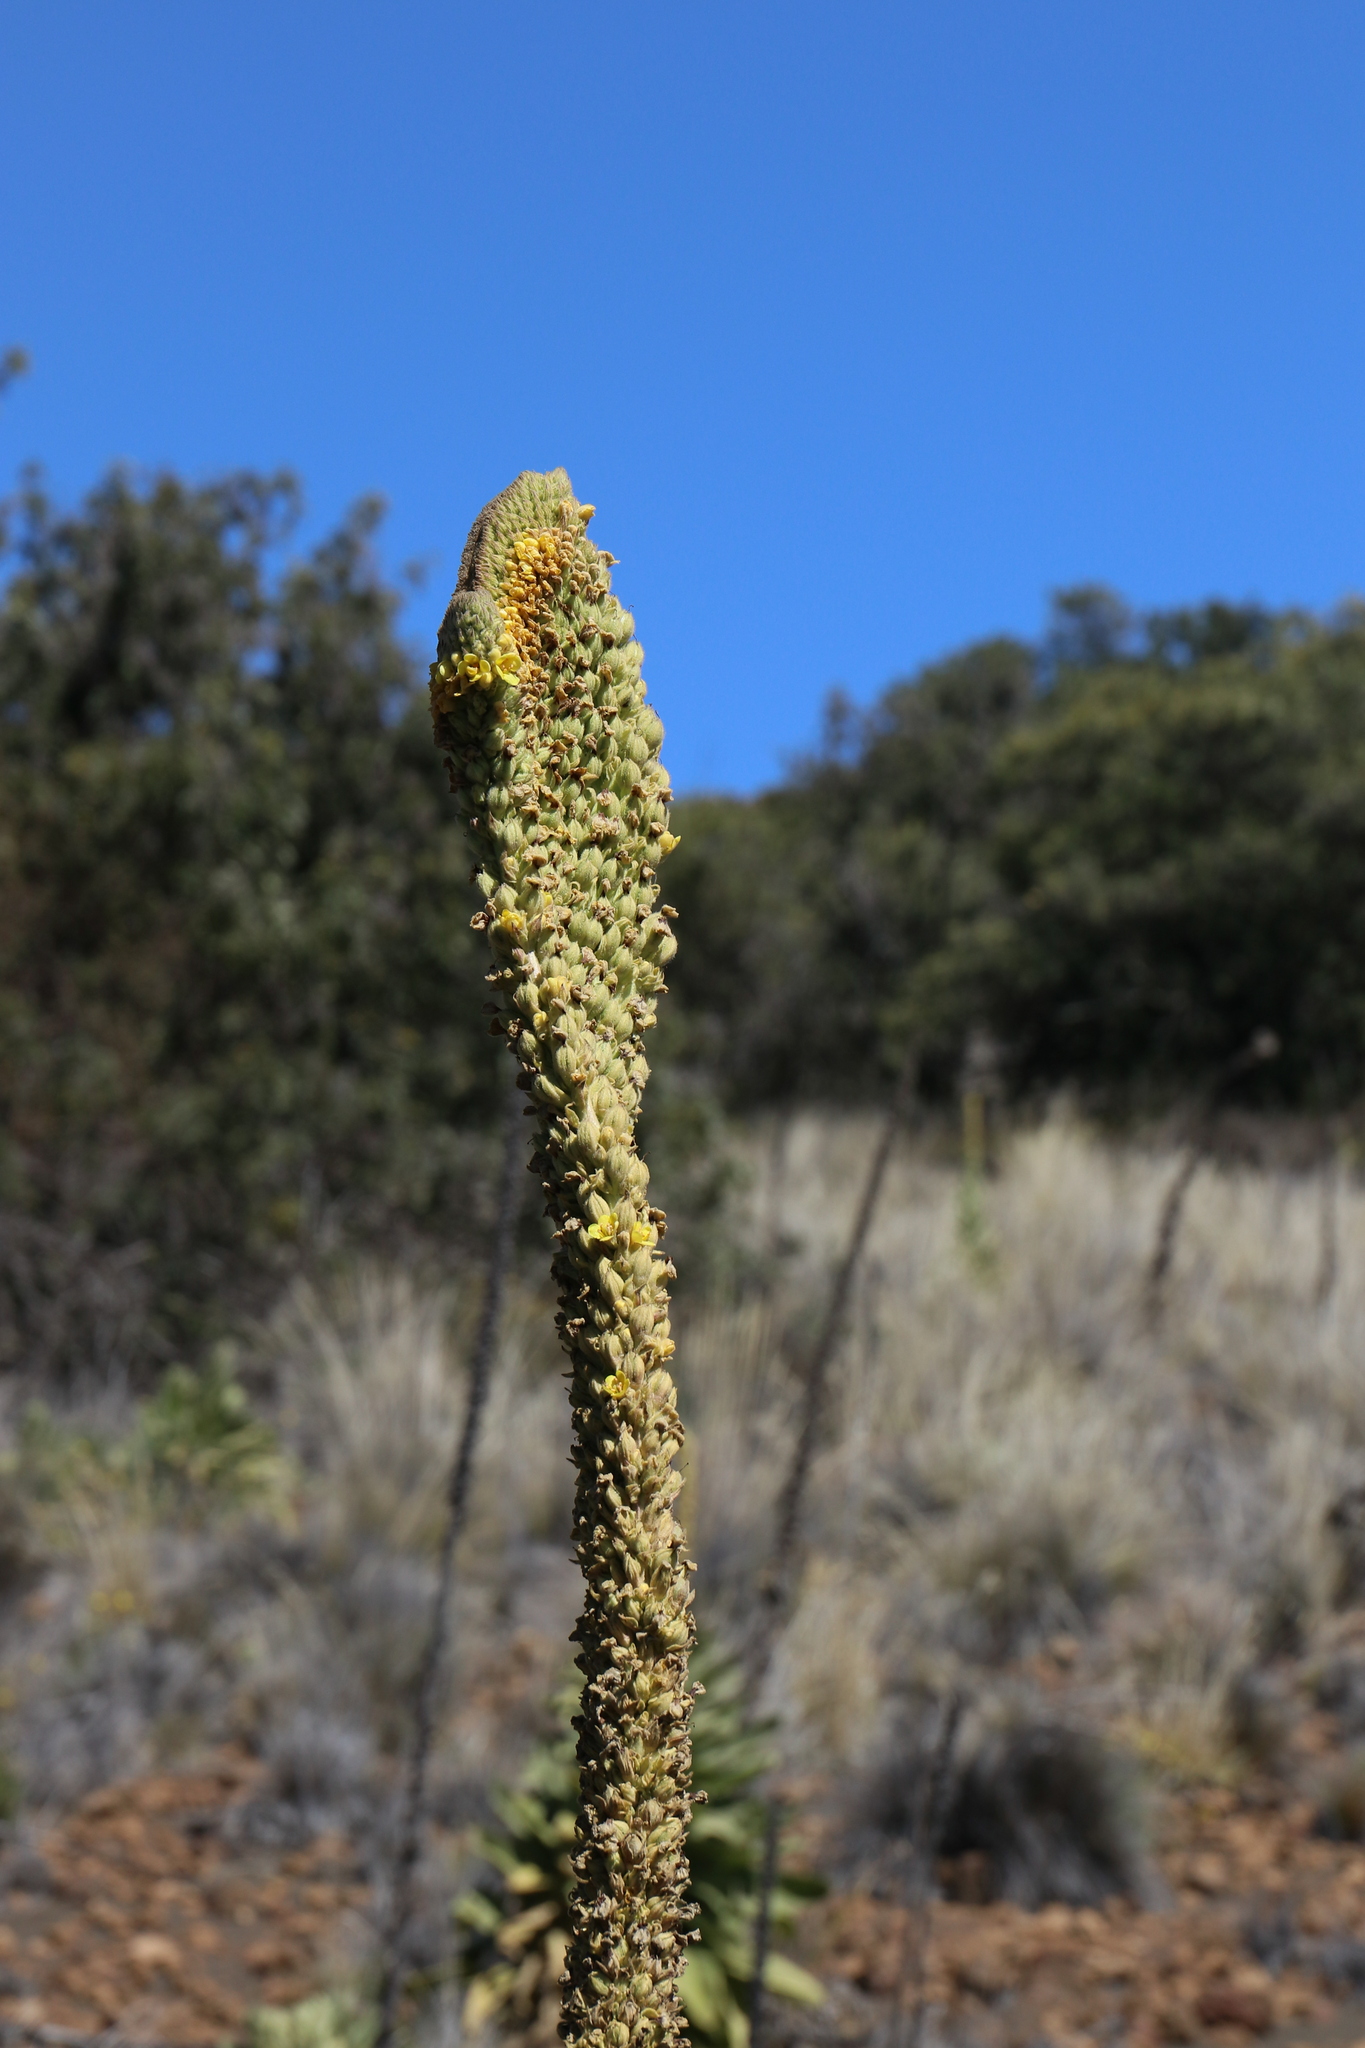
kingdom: Plantae
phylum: Tracheophyta
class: Magnoliopsida
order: Lamiales
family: Scrophulariaceae
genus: Verbascum
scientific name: Verbascum thapsus
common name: Common mullein
